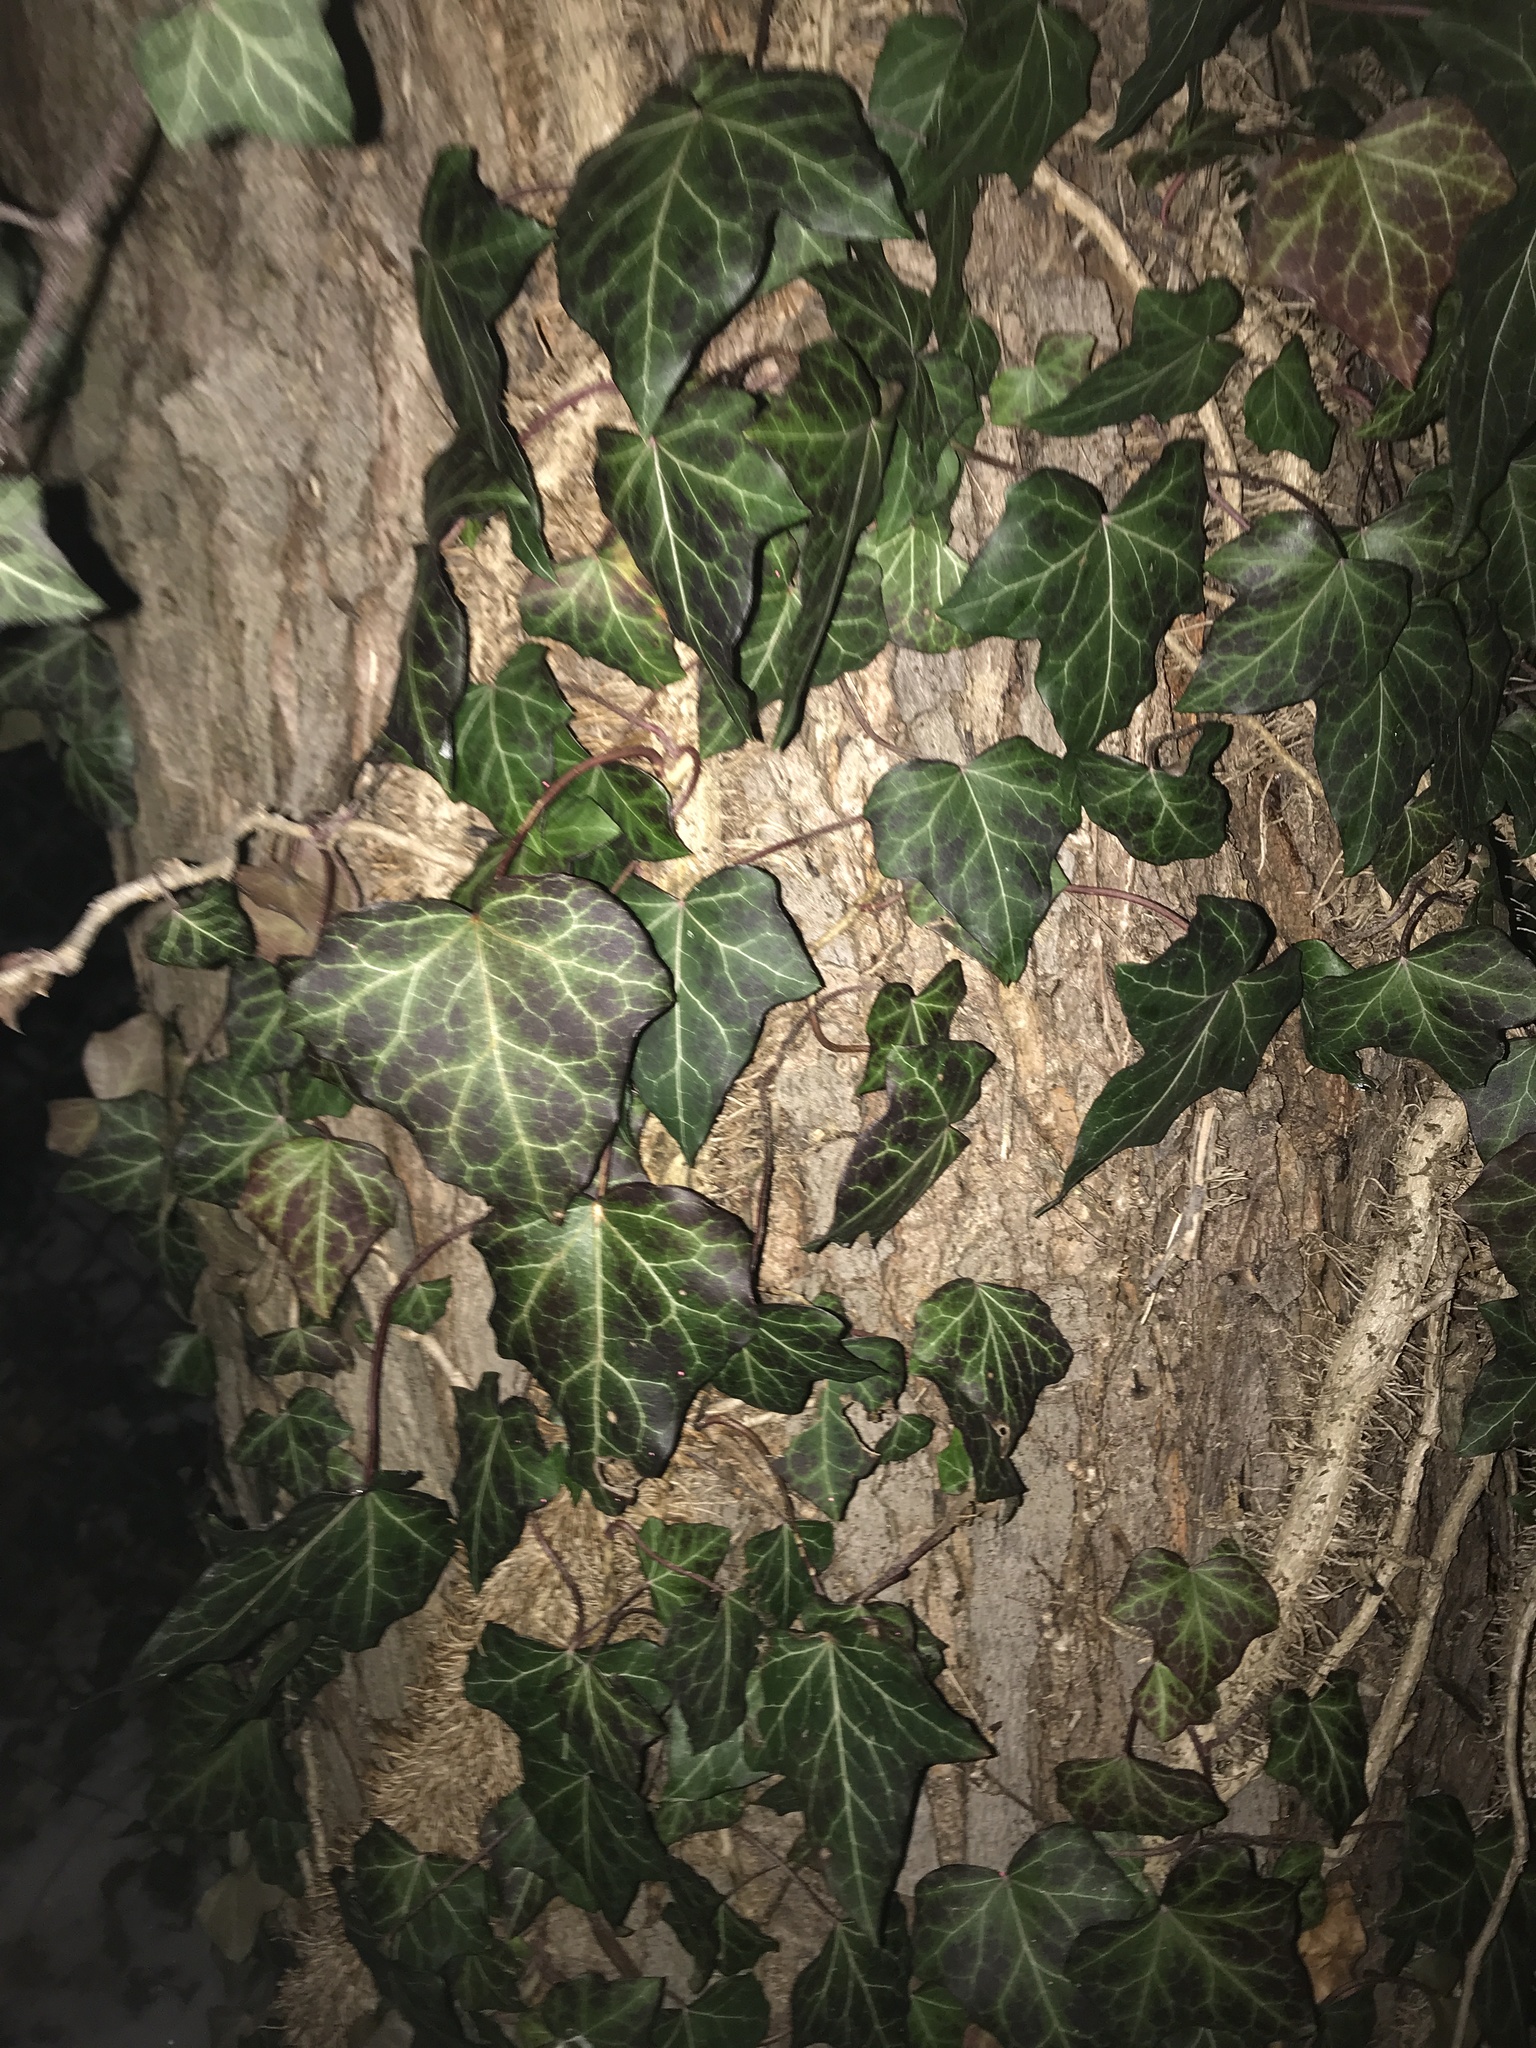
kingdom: Plantae
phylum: Tracheophyta
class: Magnoliopsida
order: Apiales
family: Araliaceae
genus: Hedera
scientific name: Hedera helix
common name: Ivy
